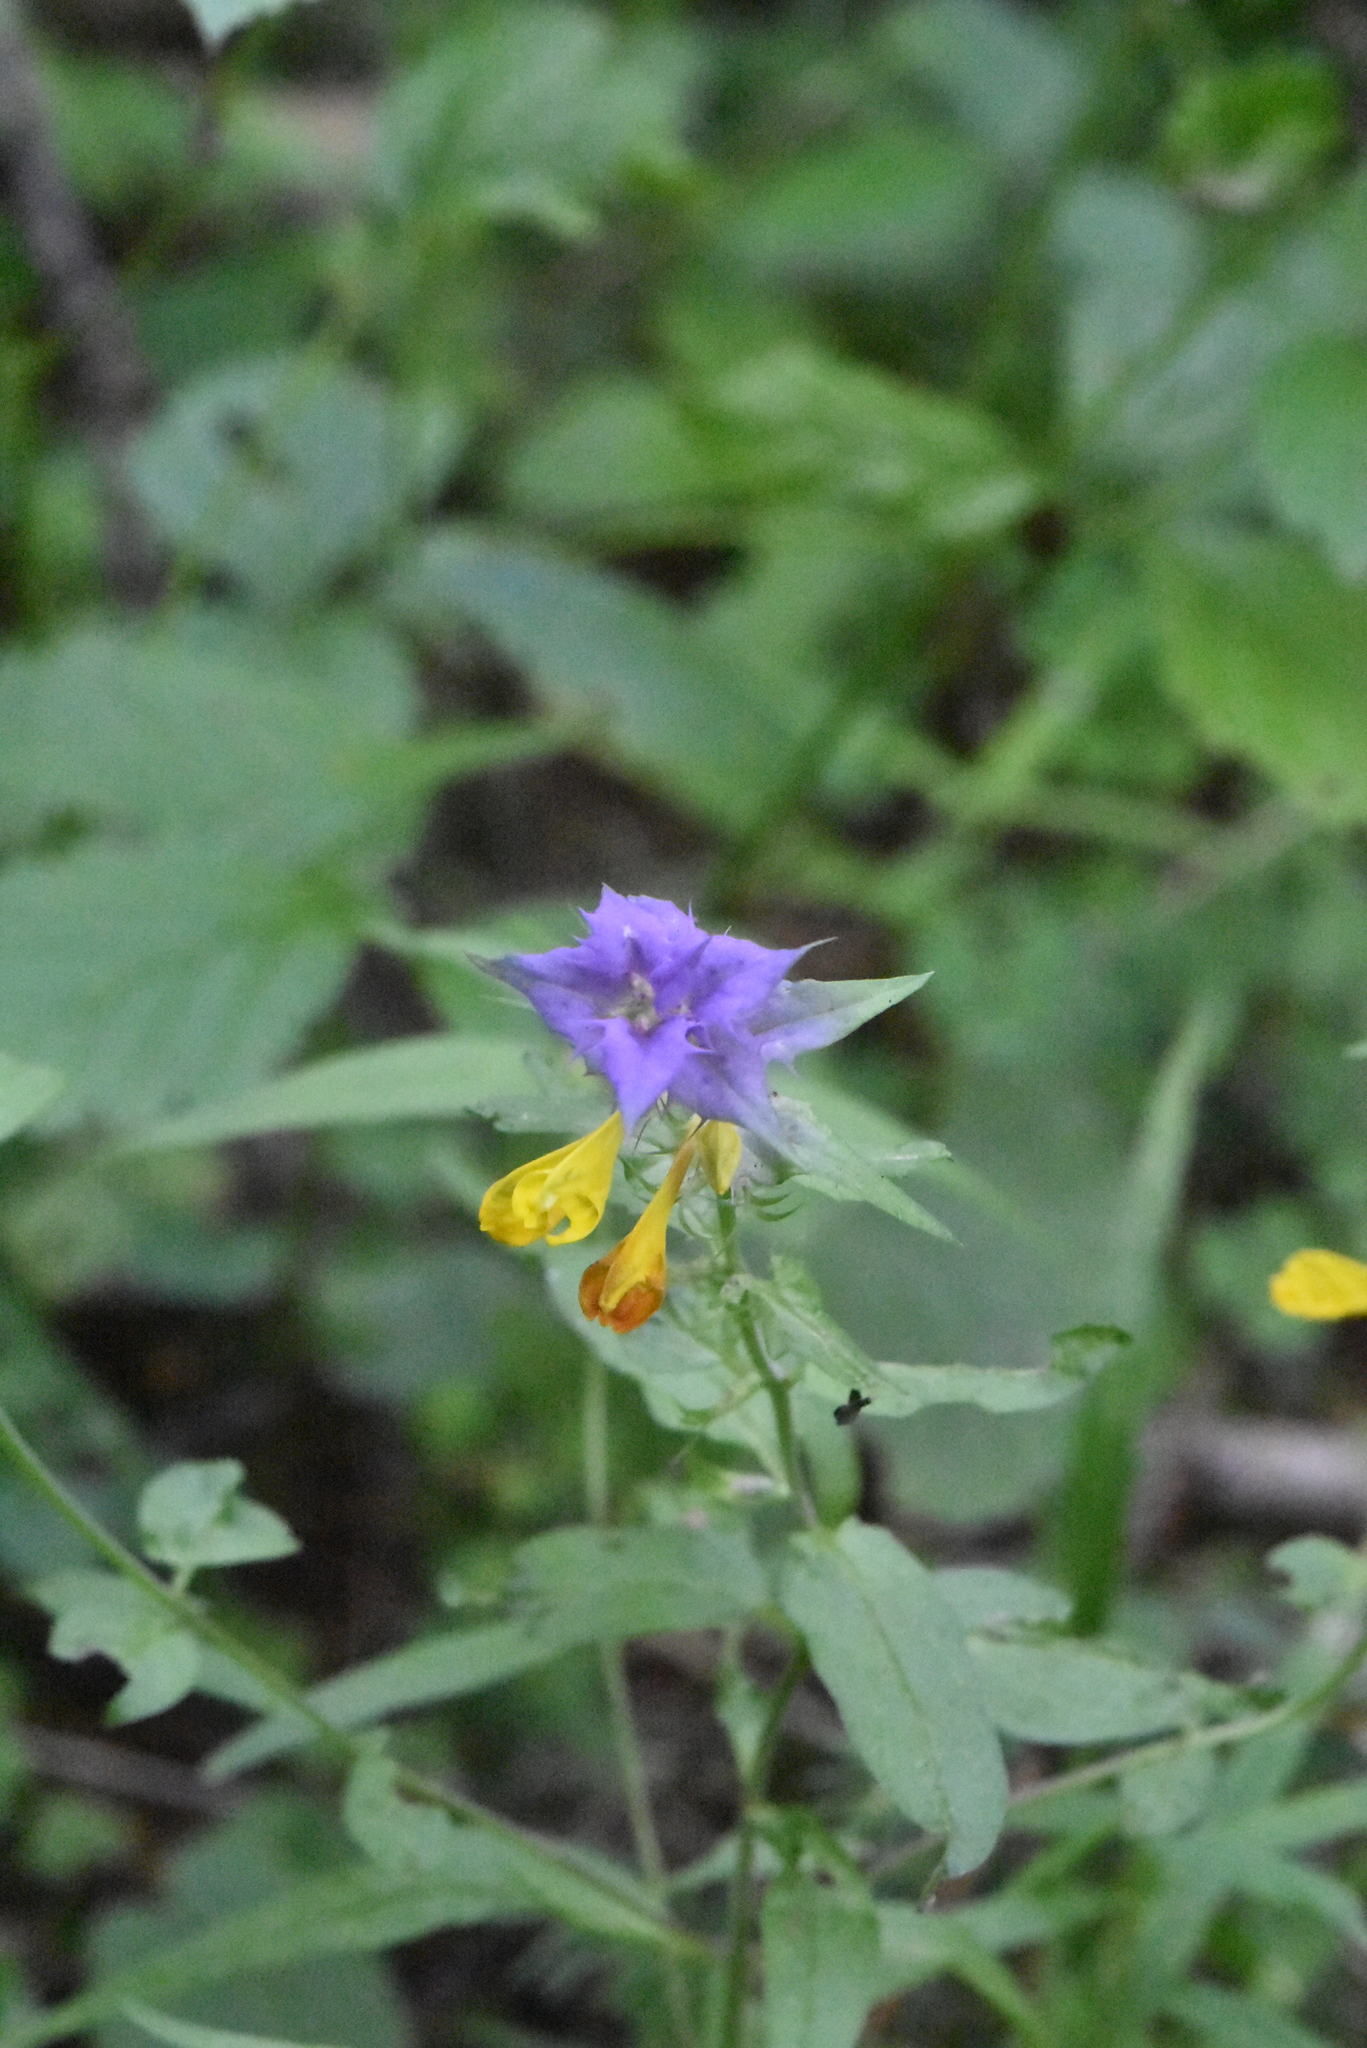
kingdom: Plantae
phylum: Tracheophyta
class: Magnoliopsida
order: Lamiales
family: Orobanchaceae
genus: Melampyrum
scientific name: Melampyrum nemorosum
